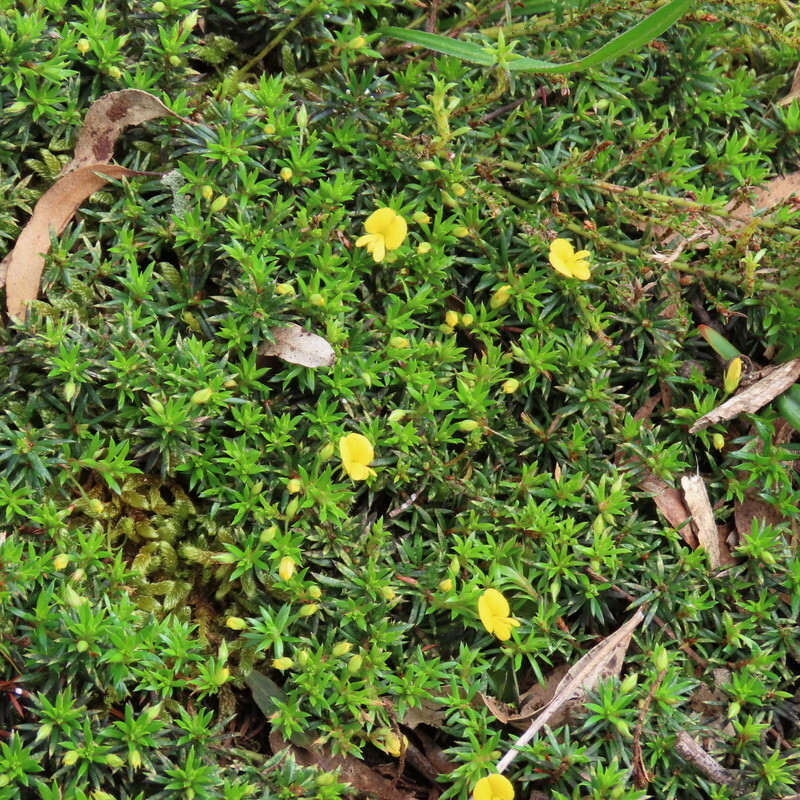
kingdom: Plantae
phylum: Tracheophyta
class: Magnoliopsida
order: Fabales
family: Fabaceae
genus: Pultenaea
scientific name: Pultenaea pedunculata
